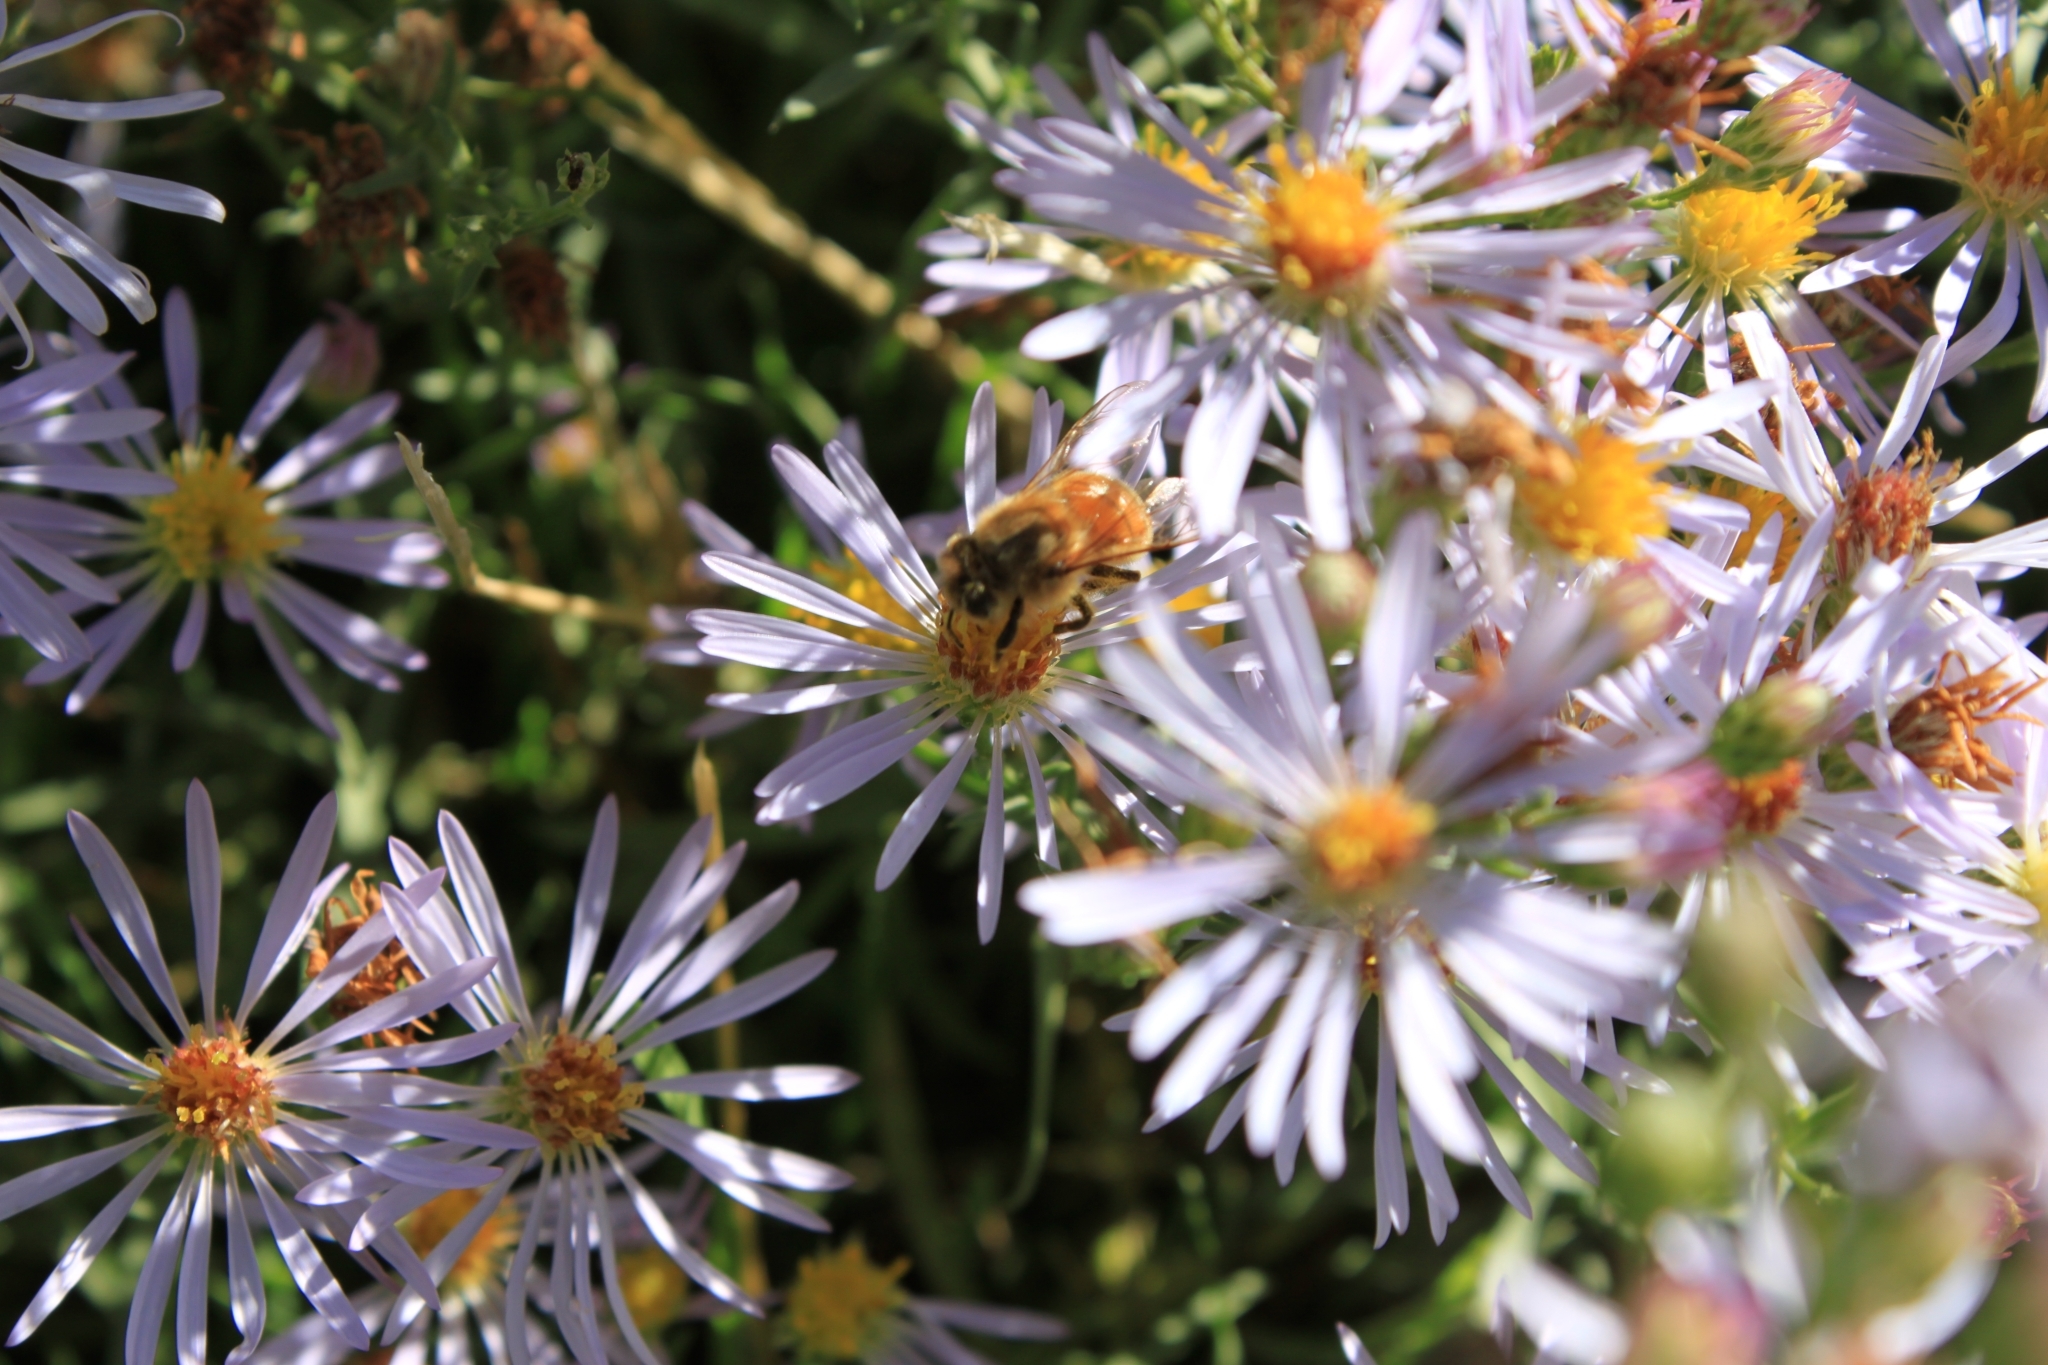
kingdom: Animalia
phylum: Arthropoda
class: Insecta
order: Hymenoptera
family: Apidae
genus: Apis
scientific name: Apis mellifera
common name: Honey bee
